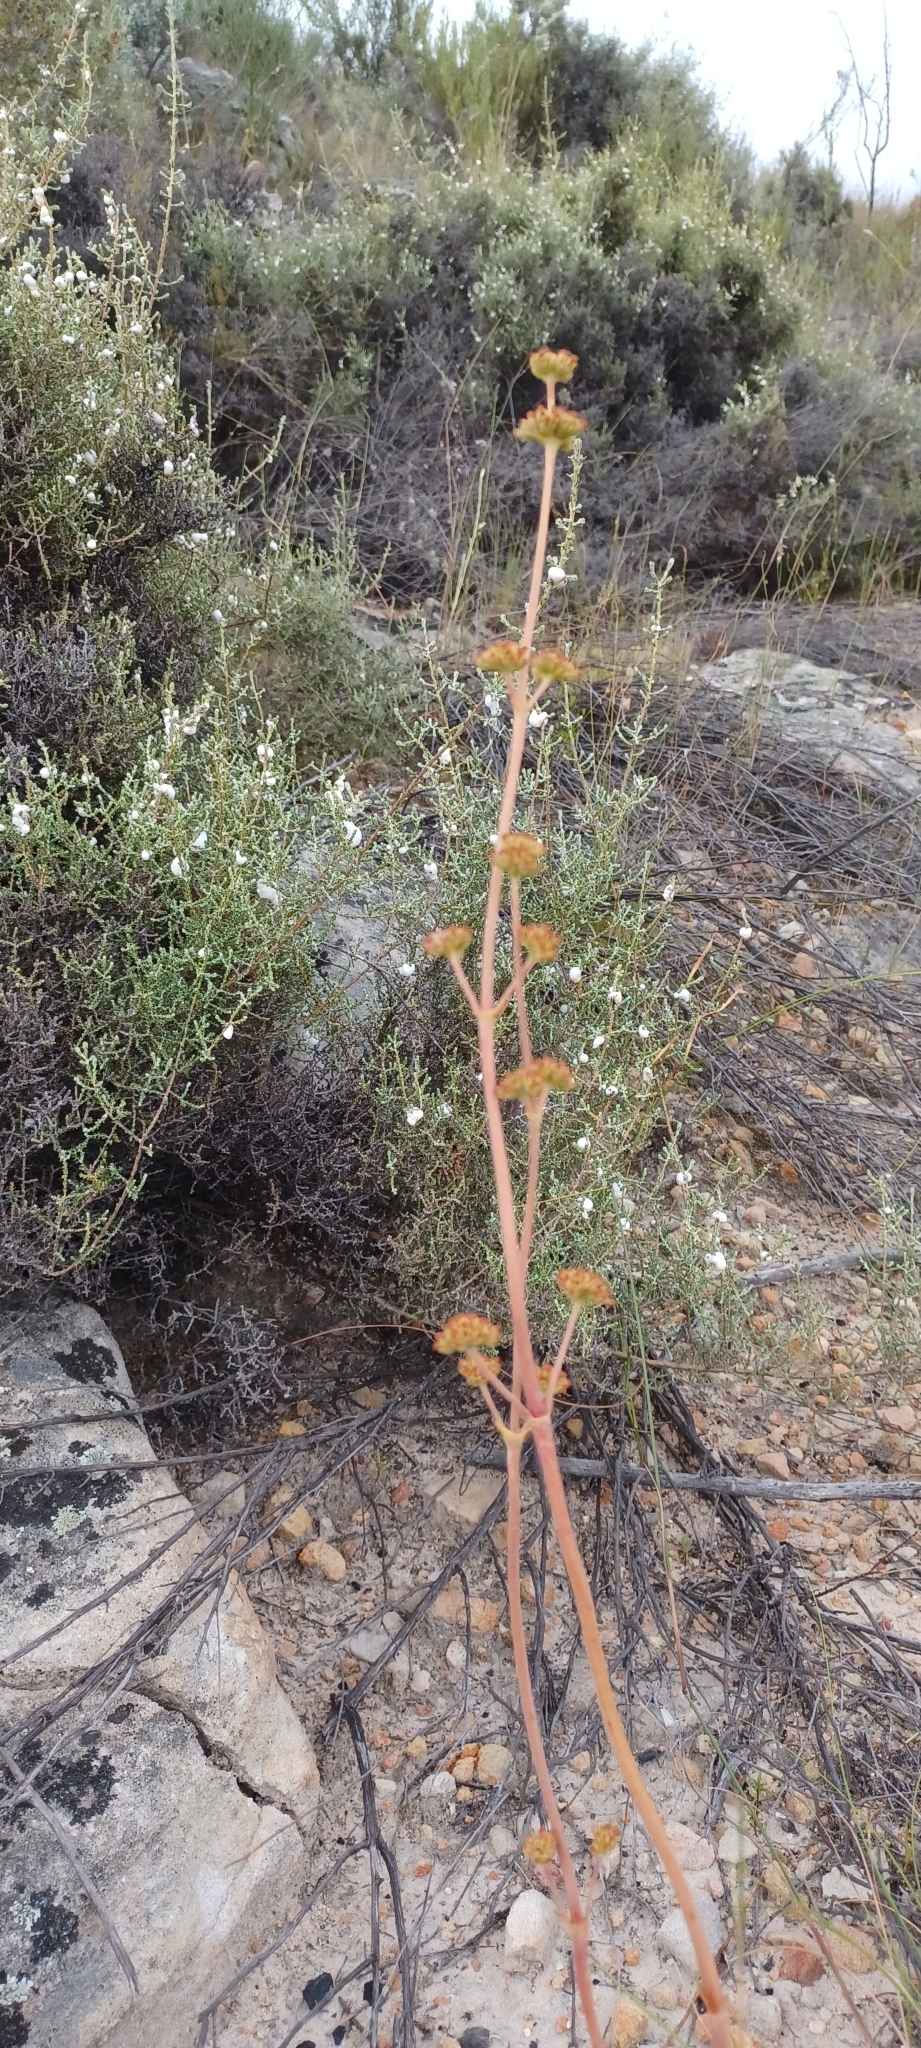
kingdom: Plantae
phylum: Tracheophyta
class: Magnoliopsida
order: Saxifragales
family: Crassulaceae
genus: Crassula
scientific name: Crassula nudicaulis
